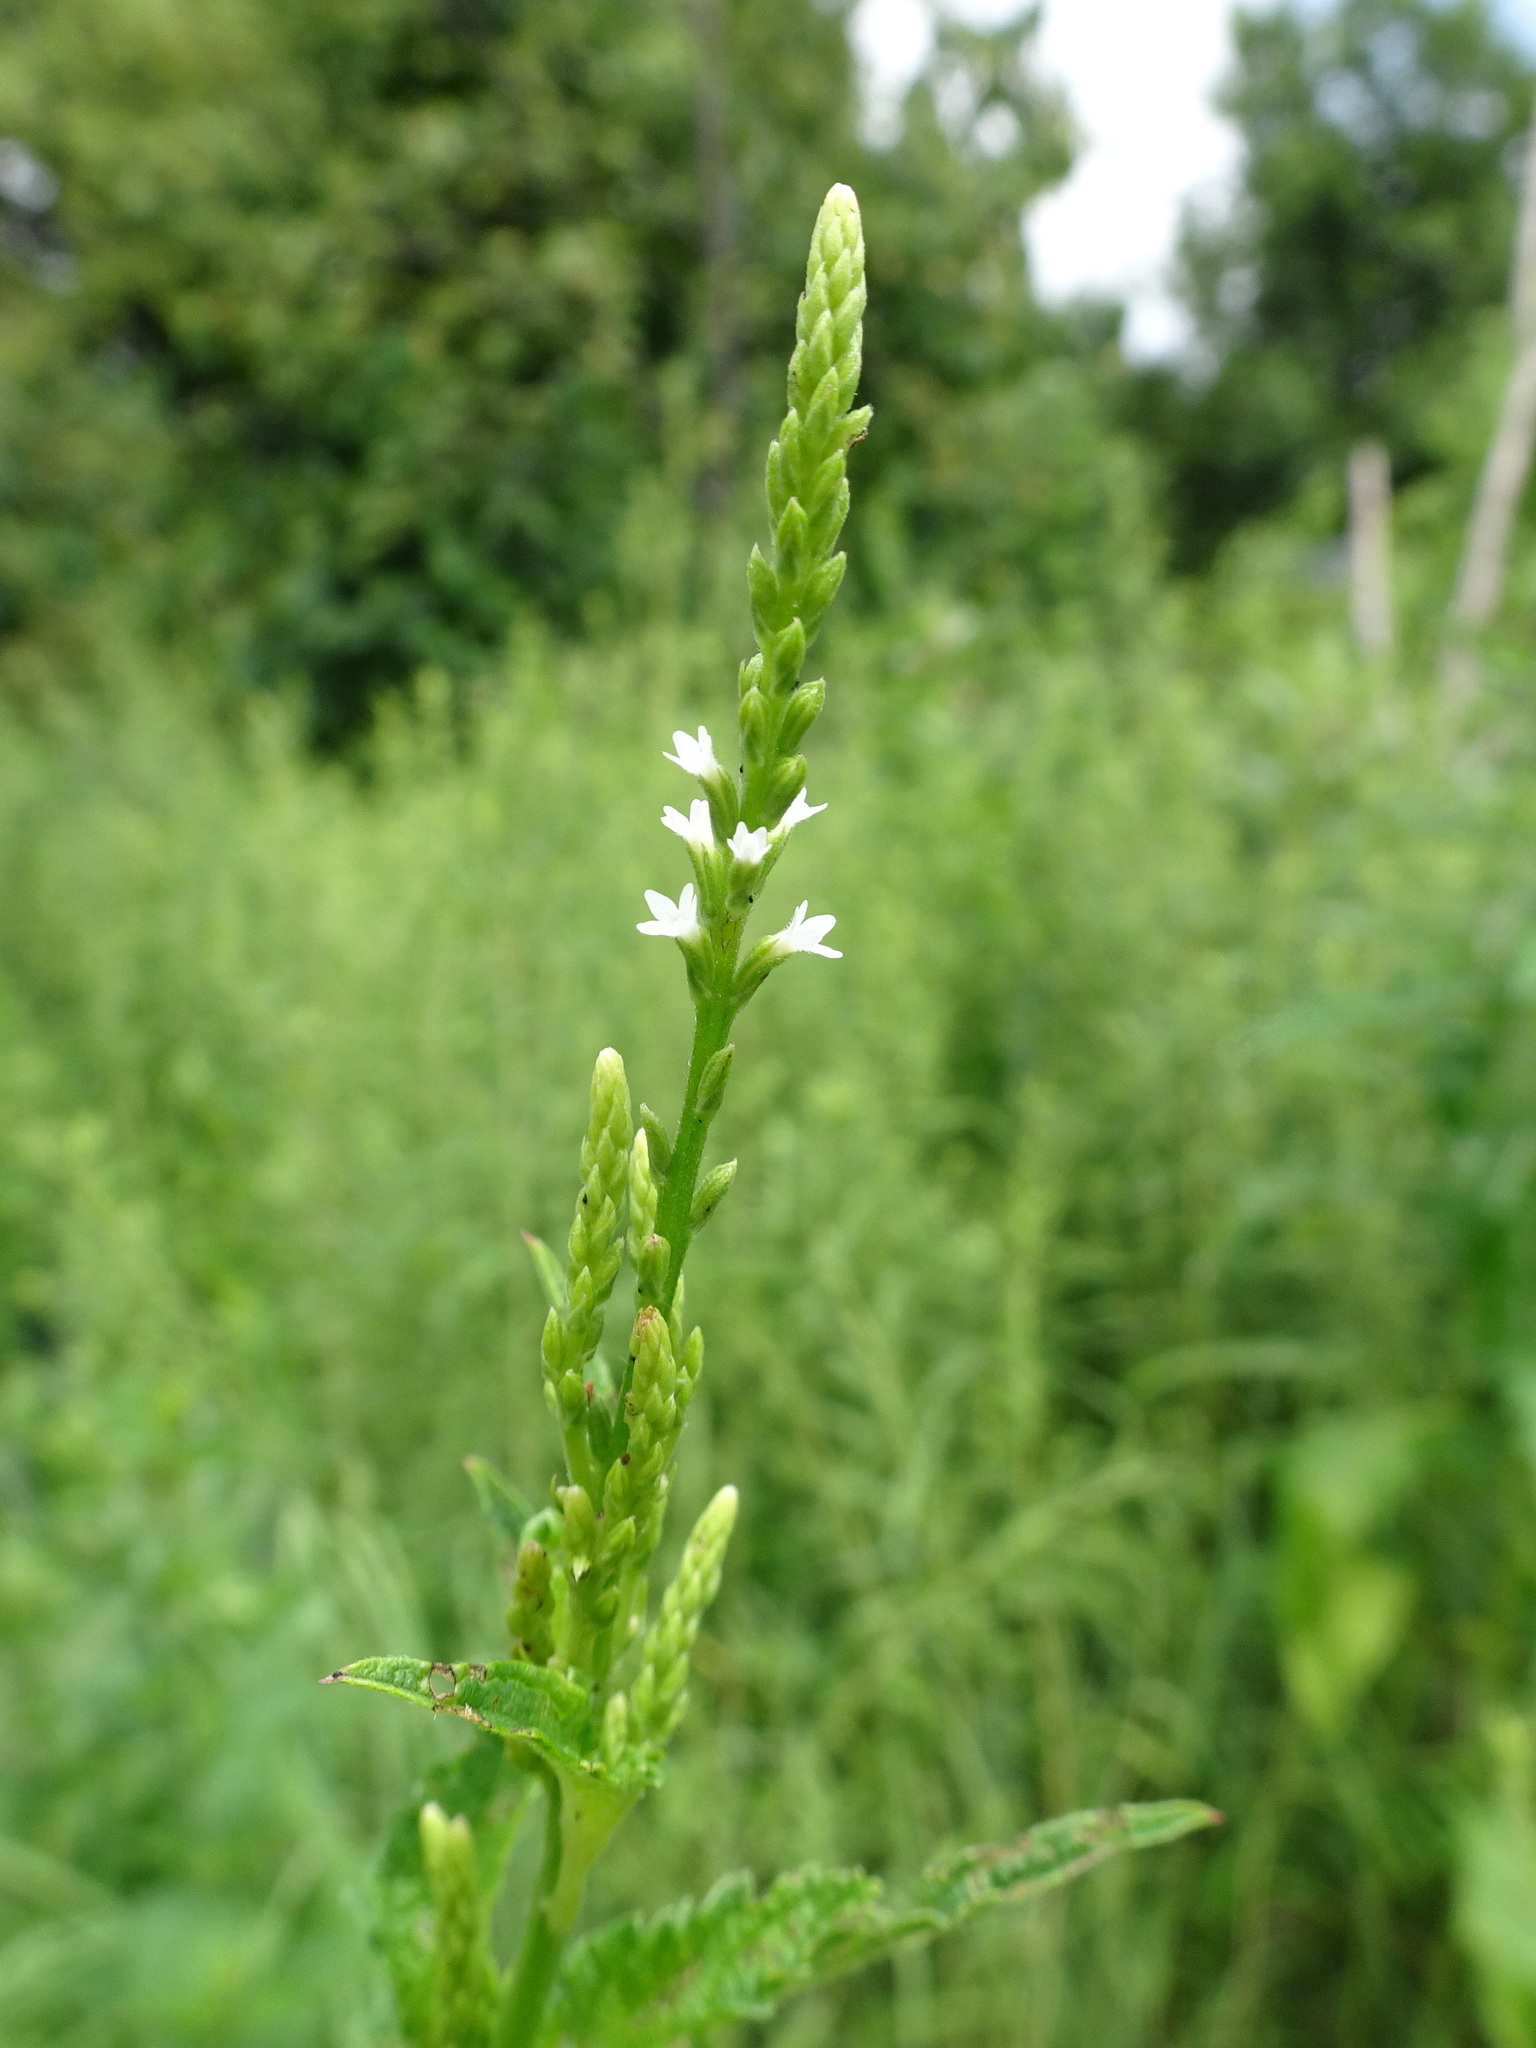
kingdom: Plantae
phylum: Tracheophyta
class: Magnoliopsida
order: Lamiales
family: Verbenaceae
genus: Verbena
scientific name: Verbena urticifolia
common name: Nettle-leaved vervain
